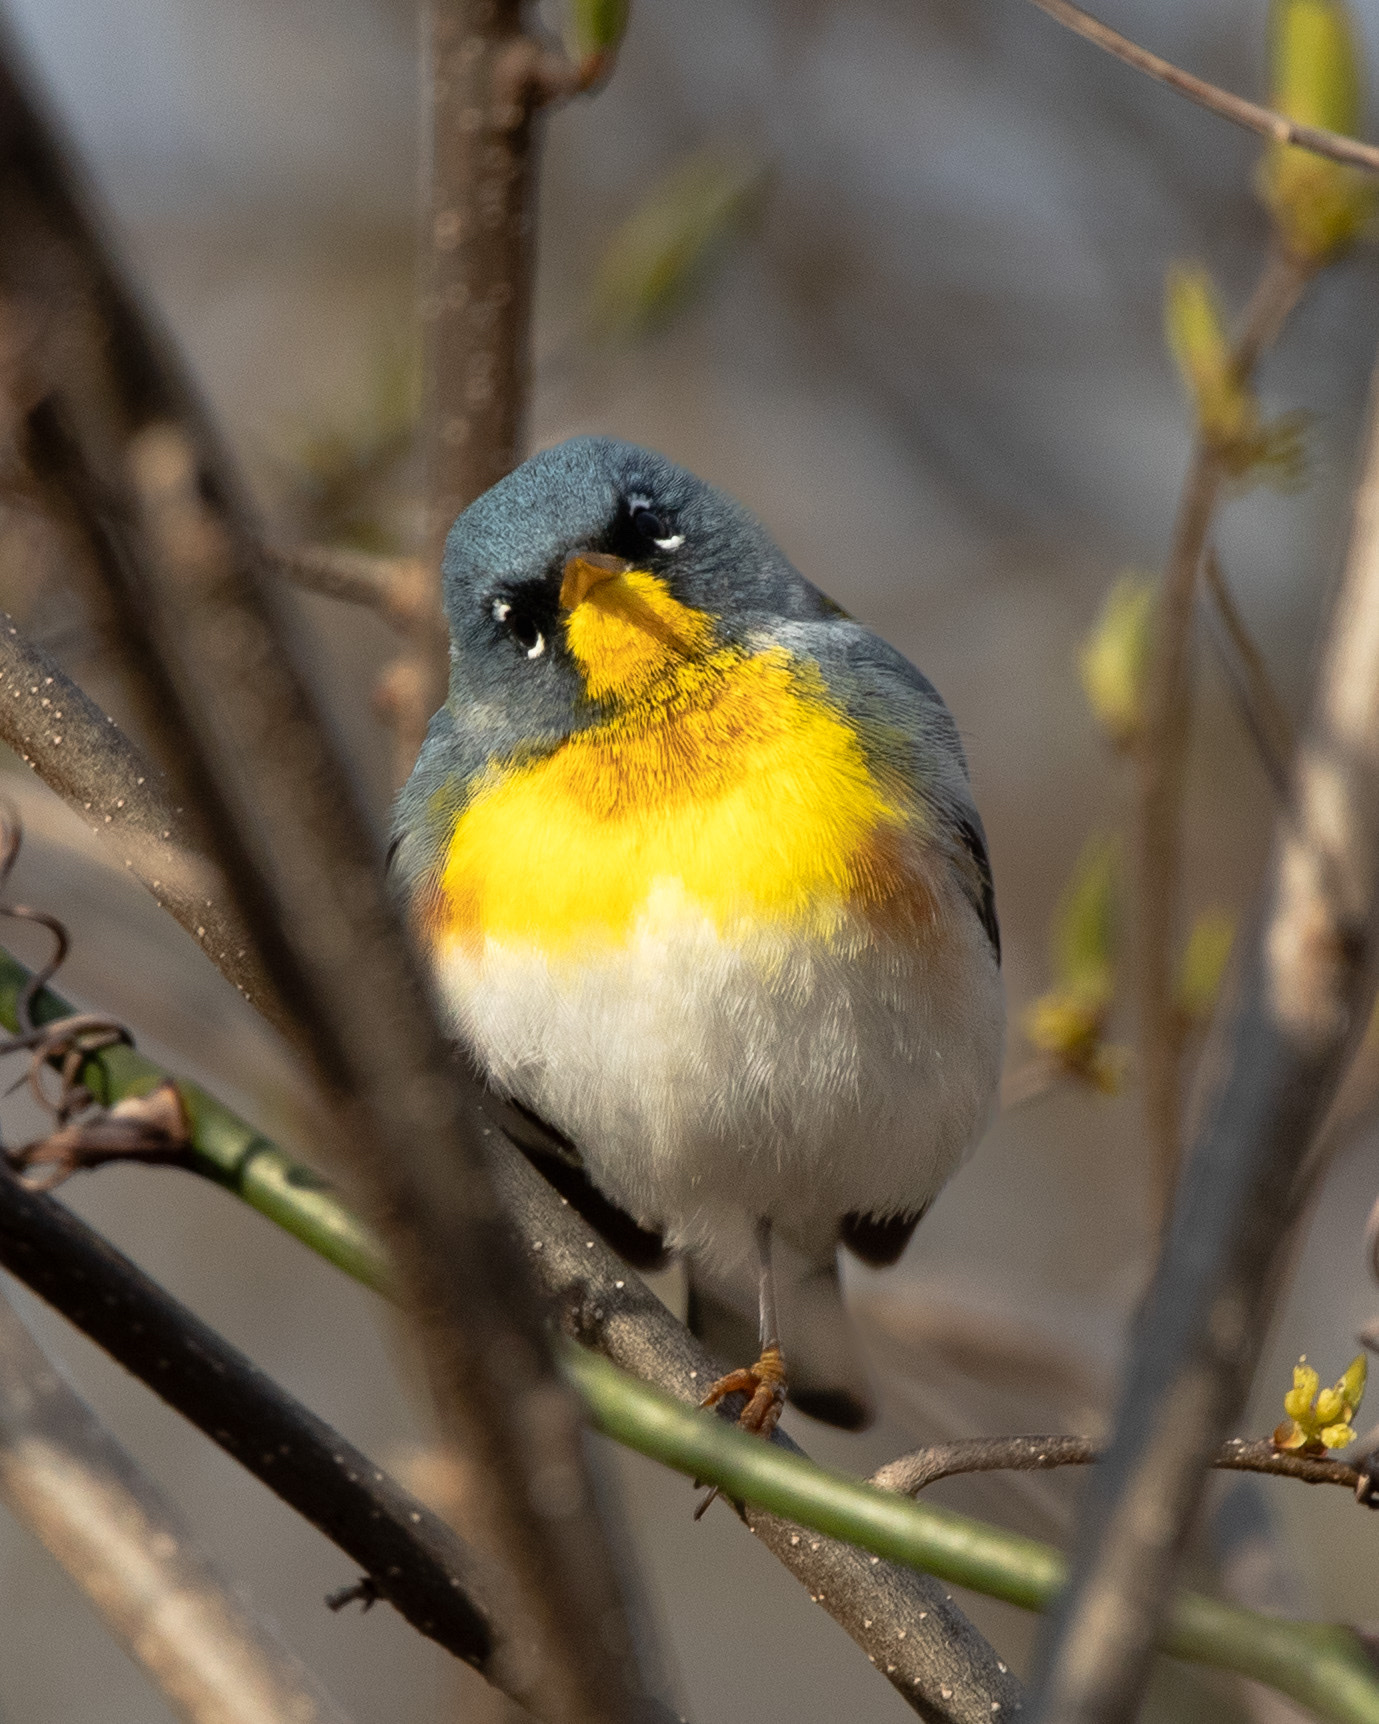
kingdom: Animalia
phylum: Chordata
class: Aves
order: Passeriformes
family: Parulidae
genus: Setophaga
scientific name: Setophaga americana
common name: Northern parula
